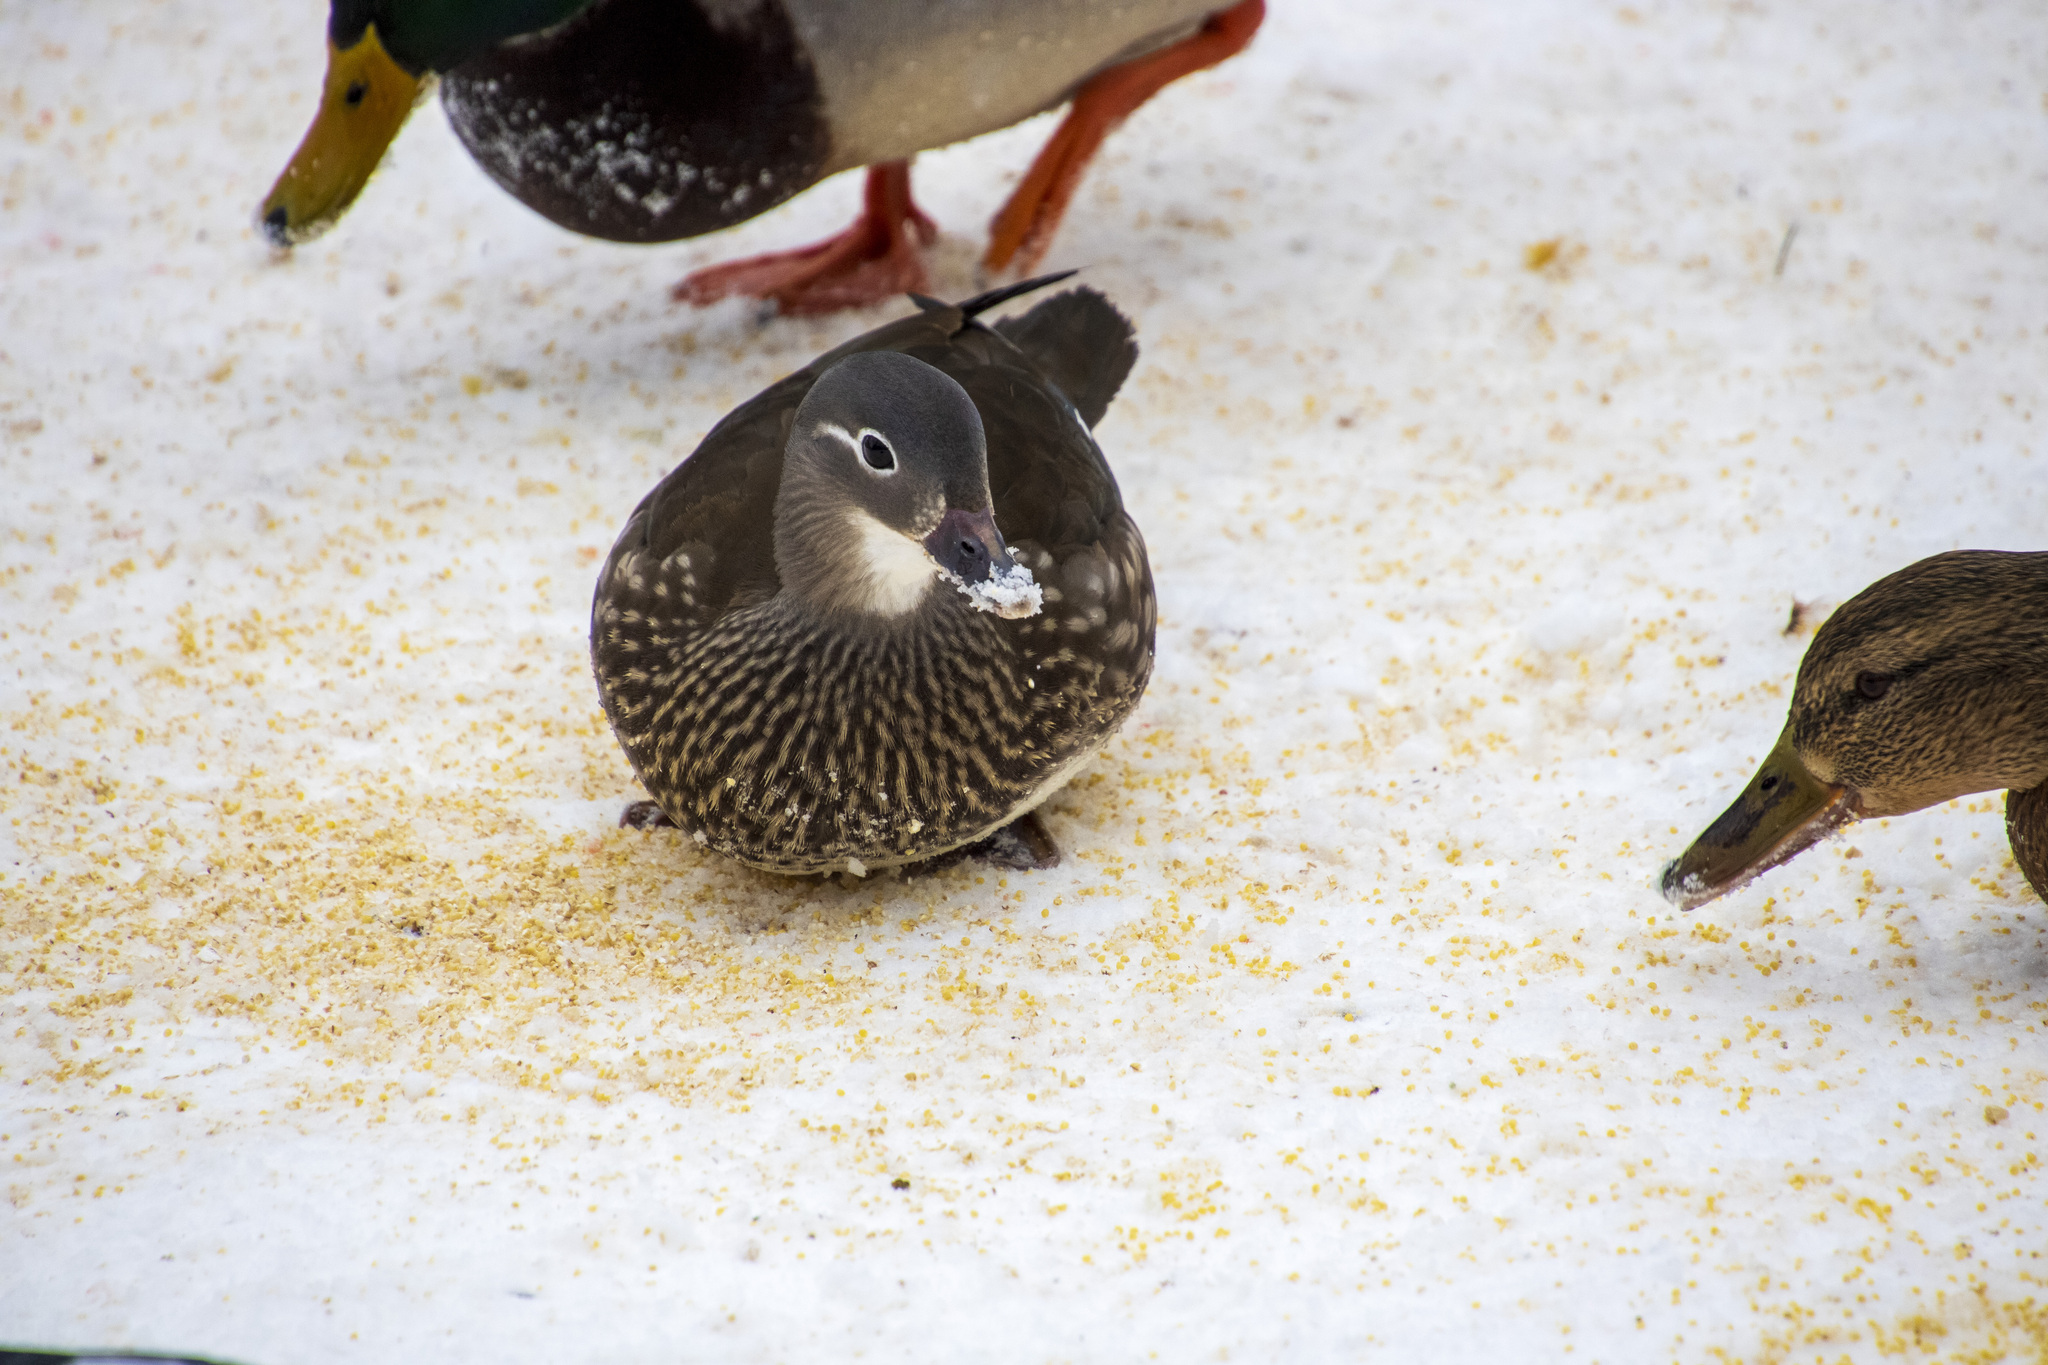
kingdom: Animalia
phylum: Chordata
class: Aves
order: Anseriformes
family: Anatidae
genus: Aix
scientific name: Aix galericulata
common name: Mandarin duck
